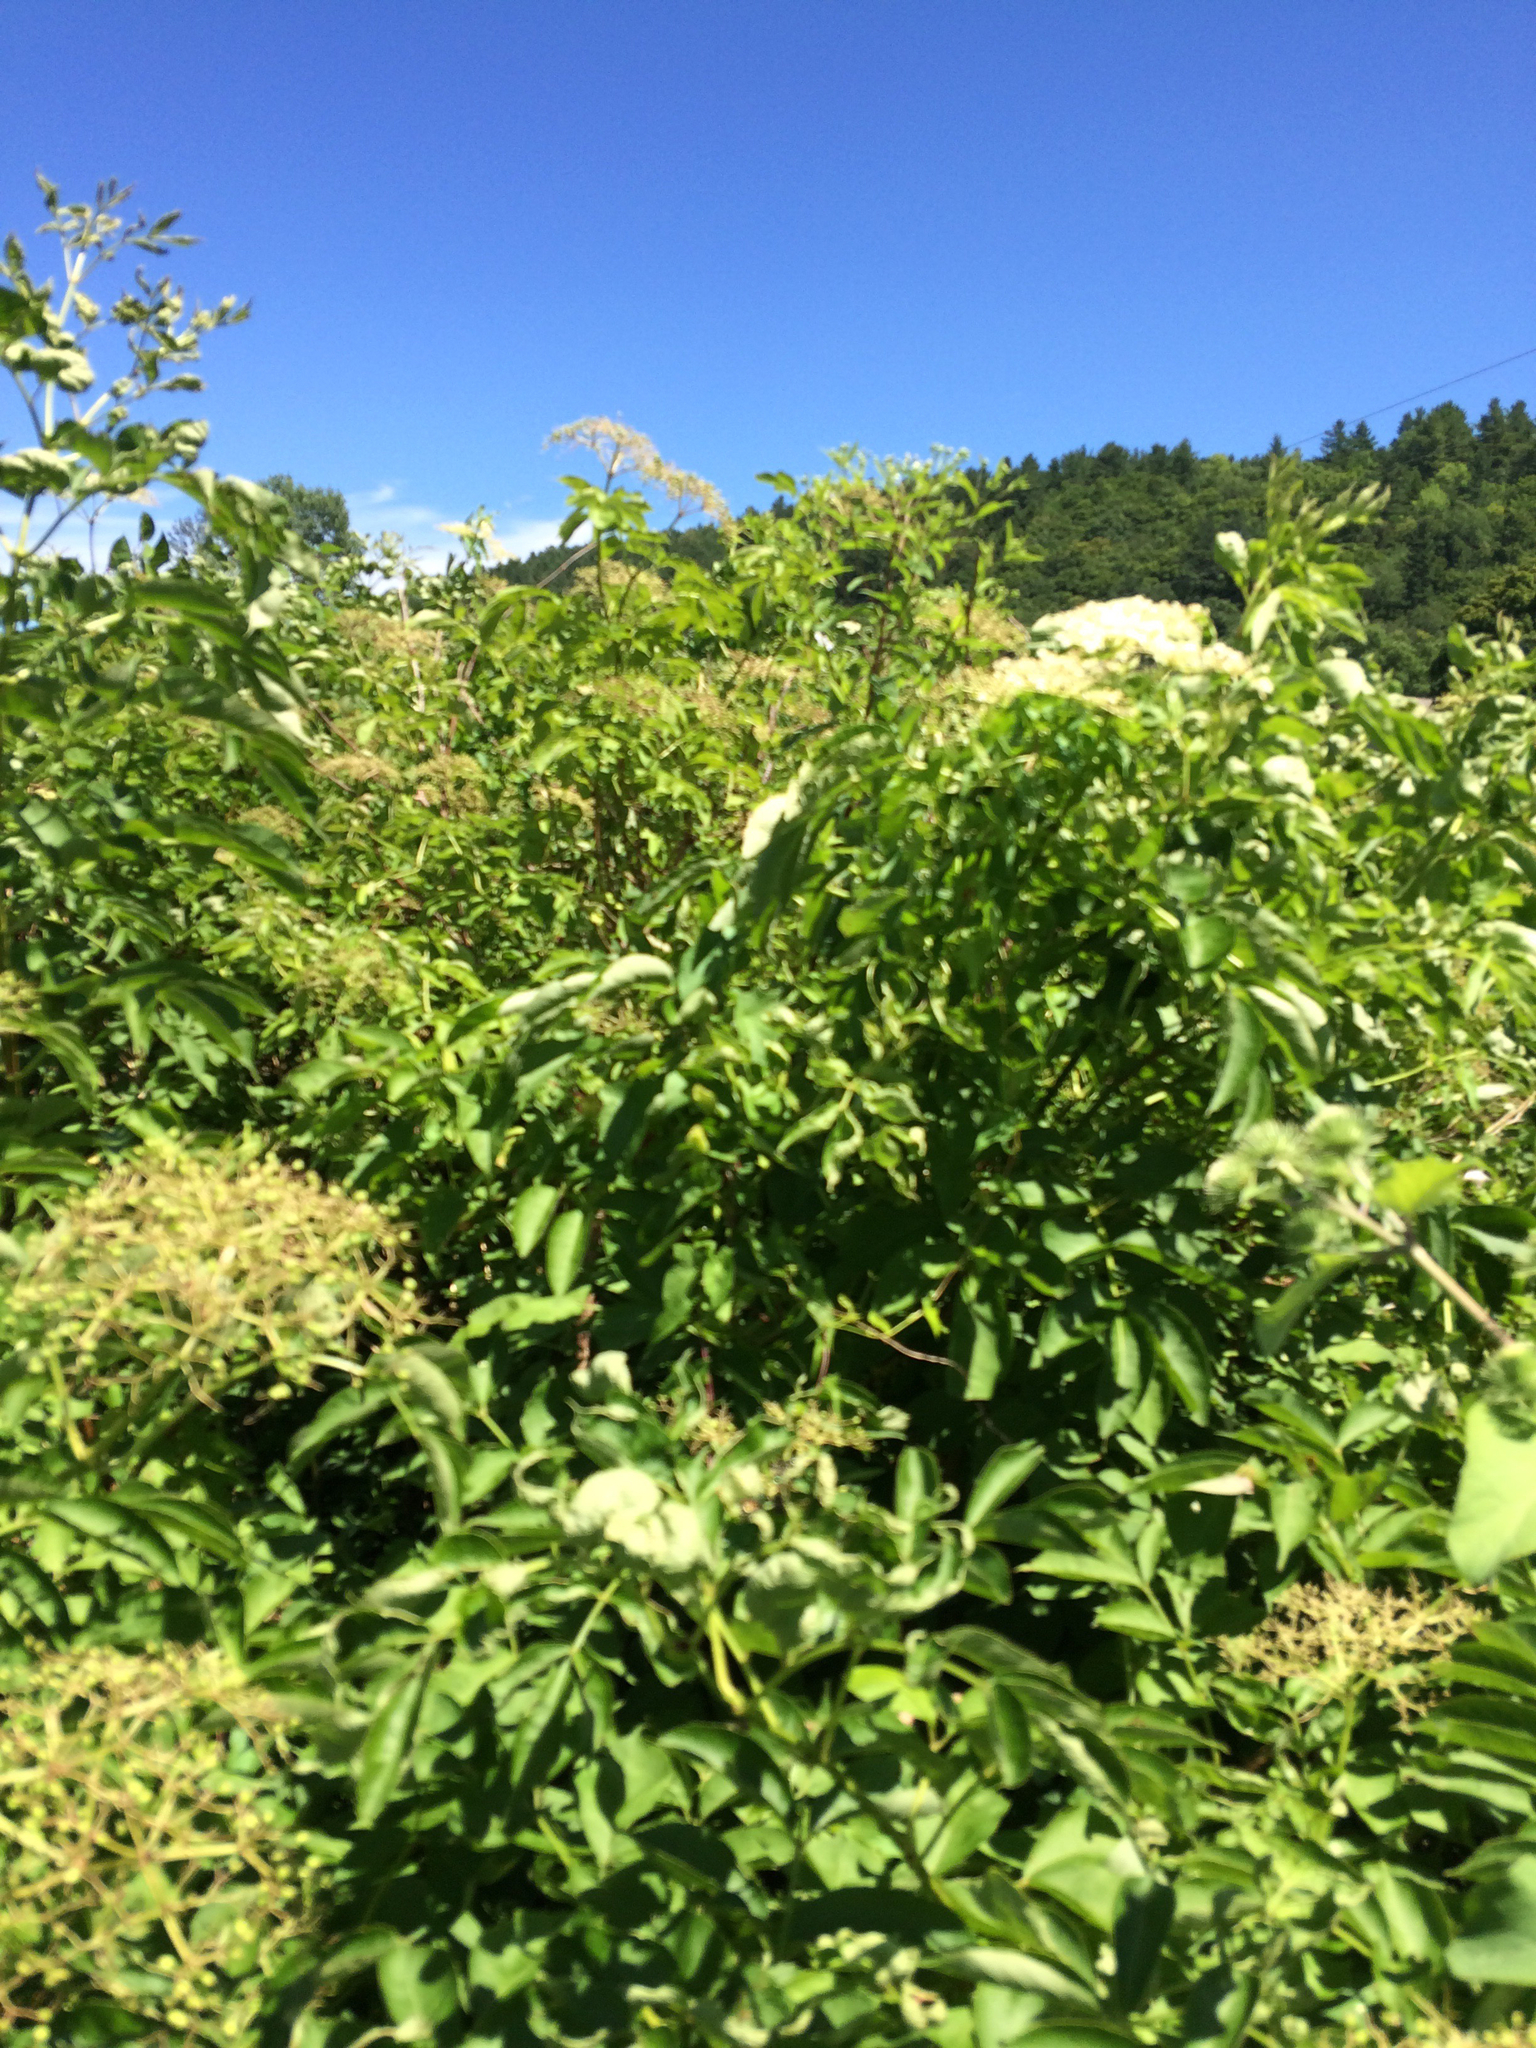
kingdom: Plantae
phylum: Tracheophyta
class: Magnoliopsida
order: Dipsacales
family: Viburnaceae
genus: Sambucus
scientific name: Sambucus canadensis
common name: American elder
